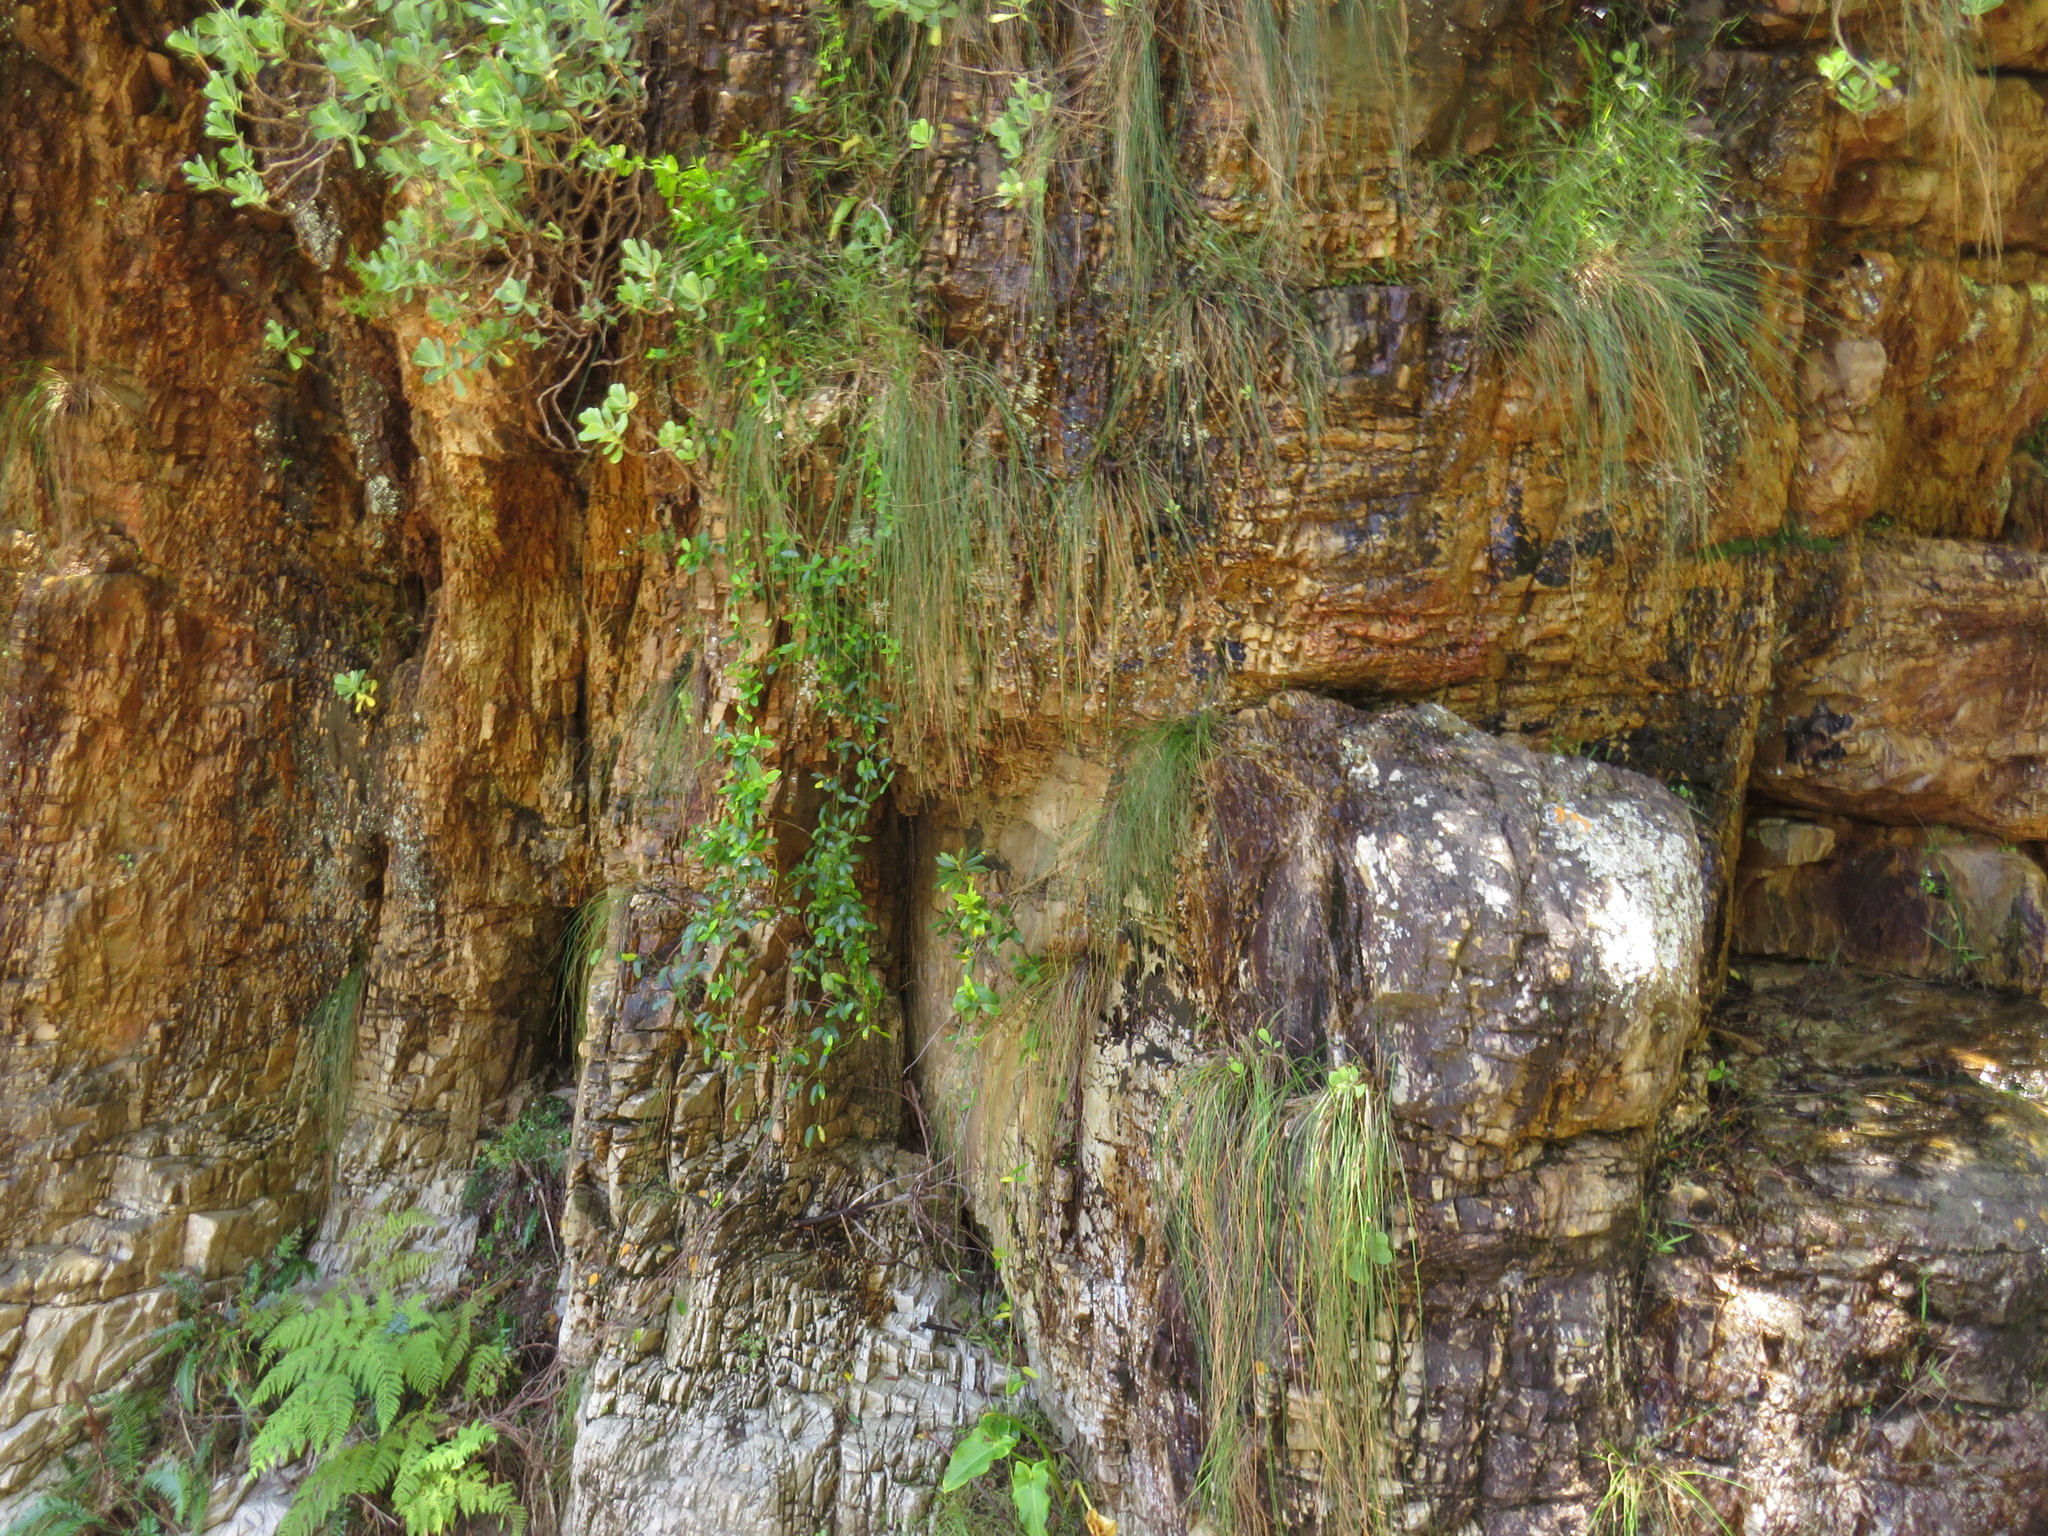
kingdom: Plantae
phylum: Tracheophyta
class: Liliopsida
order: Alismatales
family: Araceae
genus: Zantedeschia
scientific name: Zantedeschia aethiopica
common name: Altar-lily
